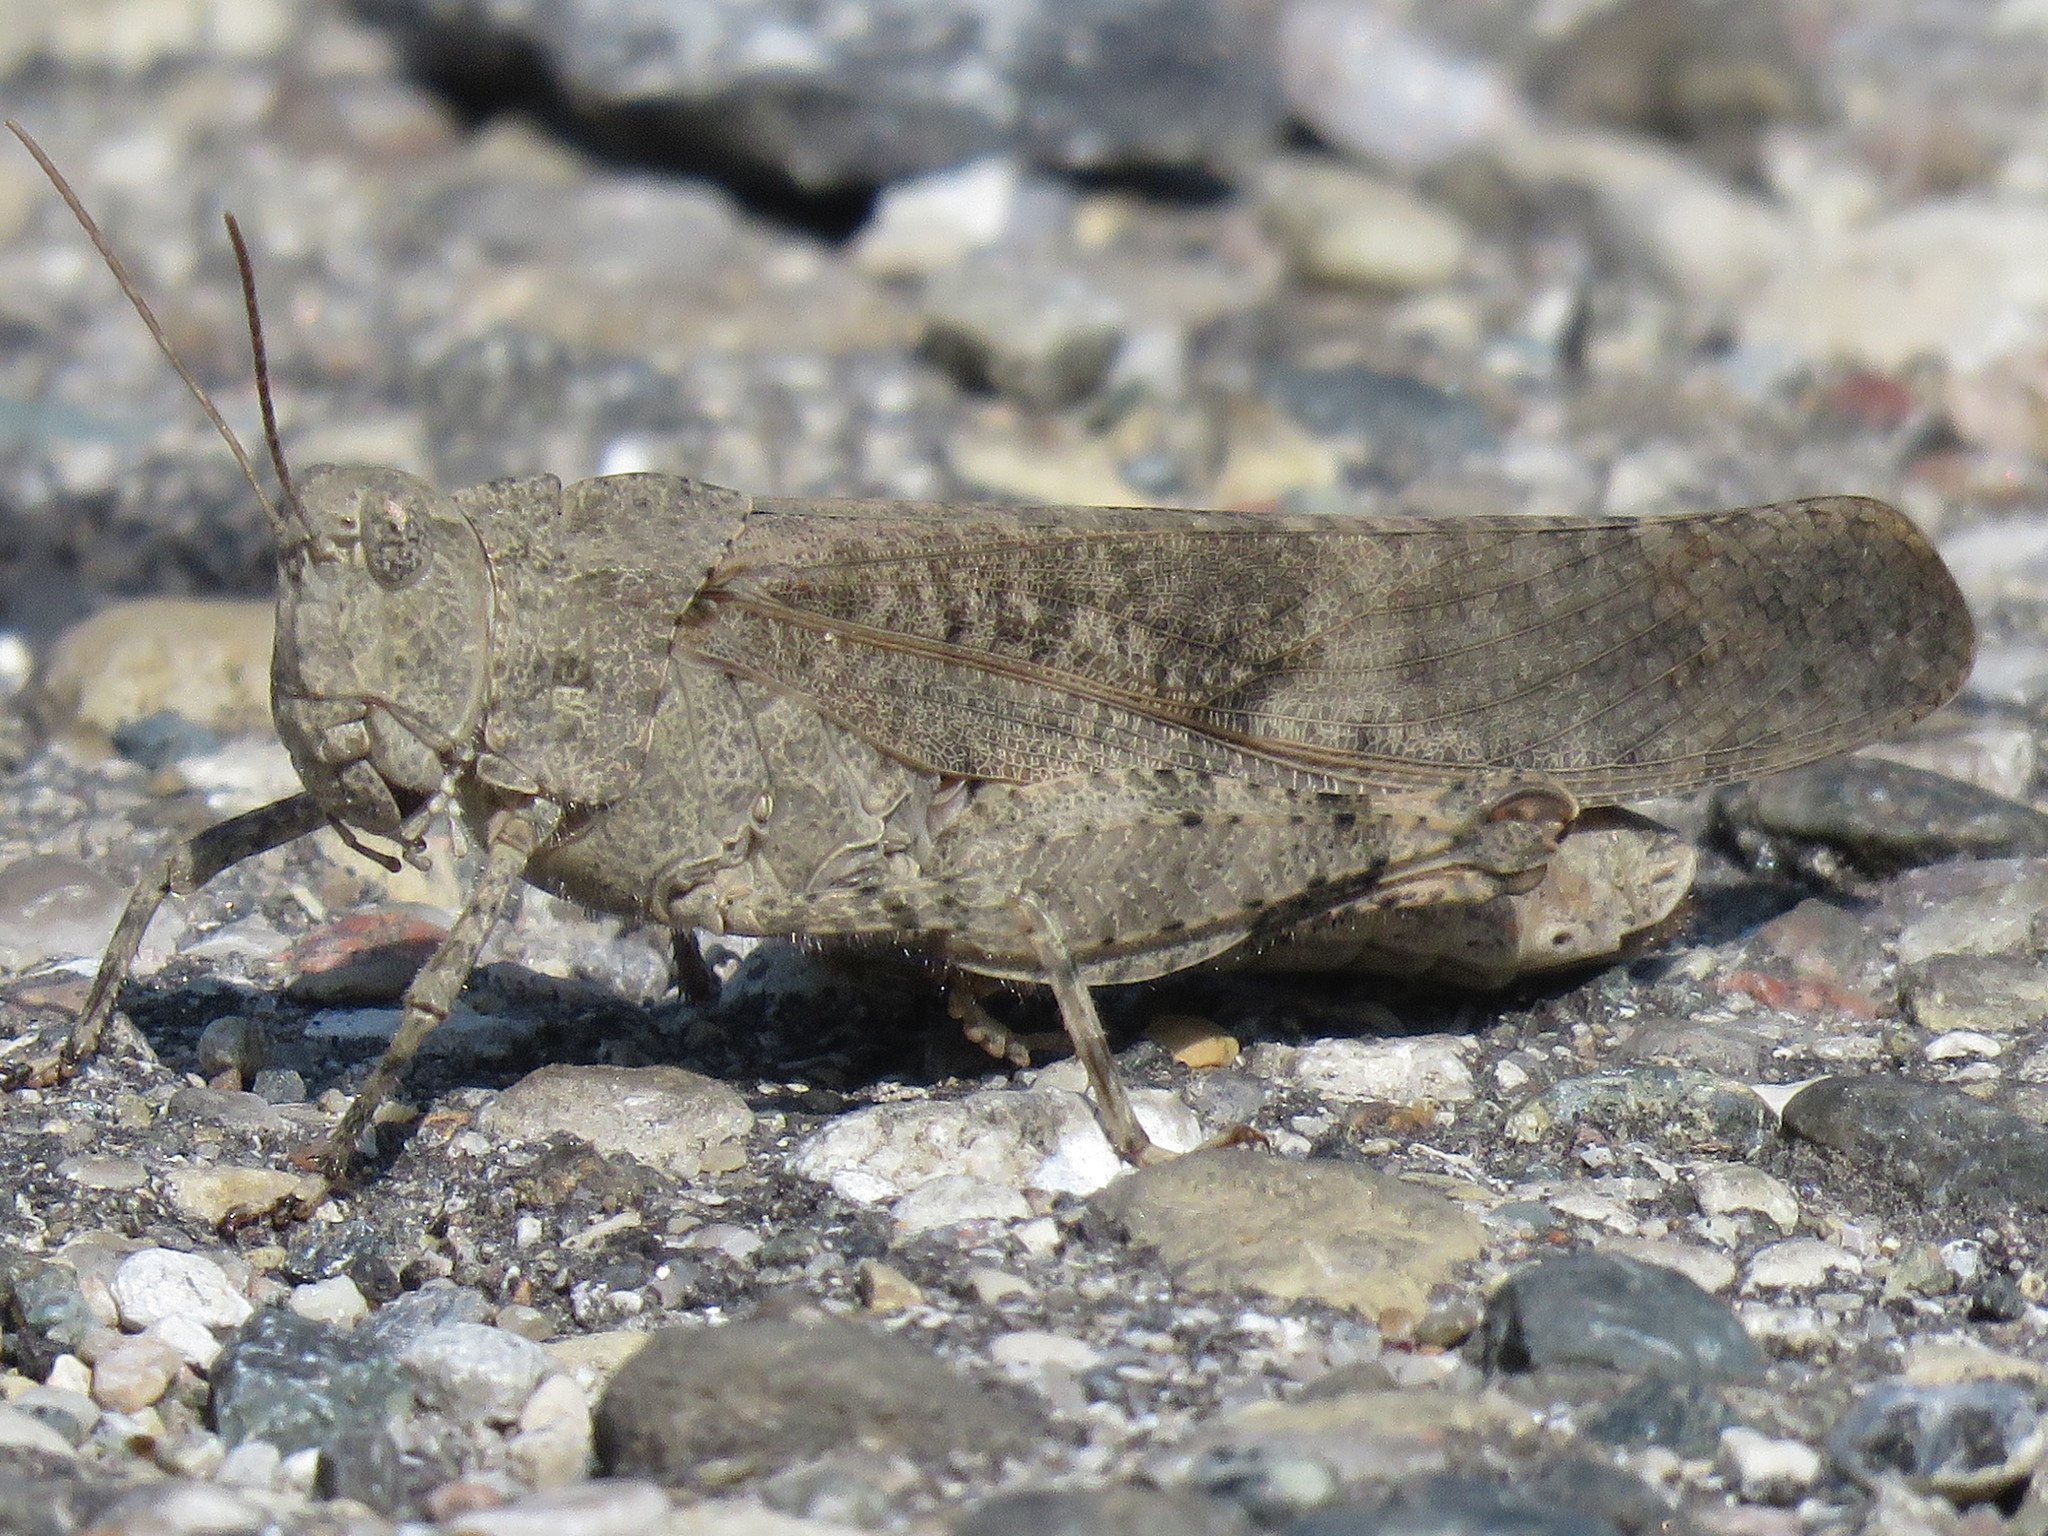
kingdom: Animalia
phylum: Arthropoda
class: Insecta
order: Orthoptera
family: Acrididae
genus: Dissosteira
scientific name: Dissosteira carolina
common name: Carolina grasshopper
